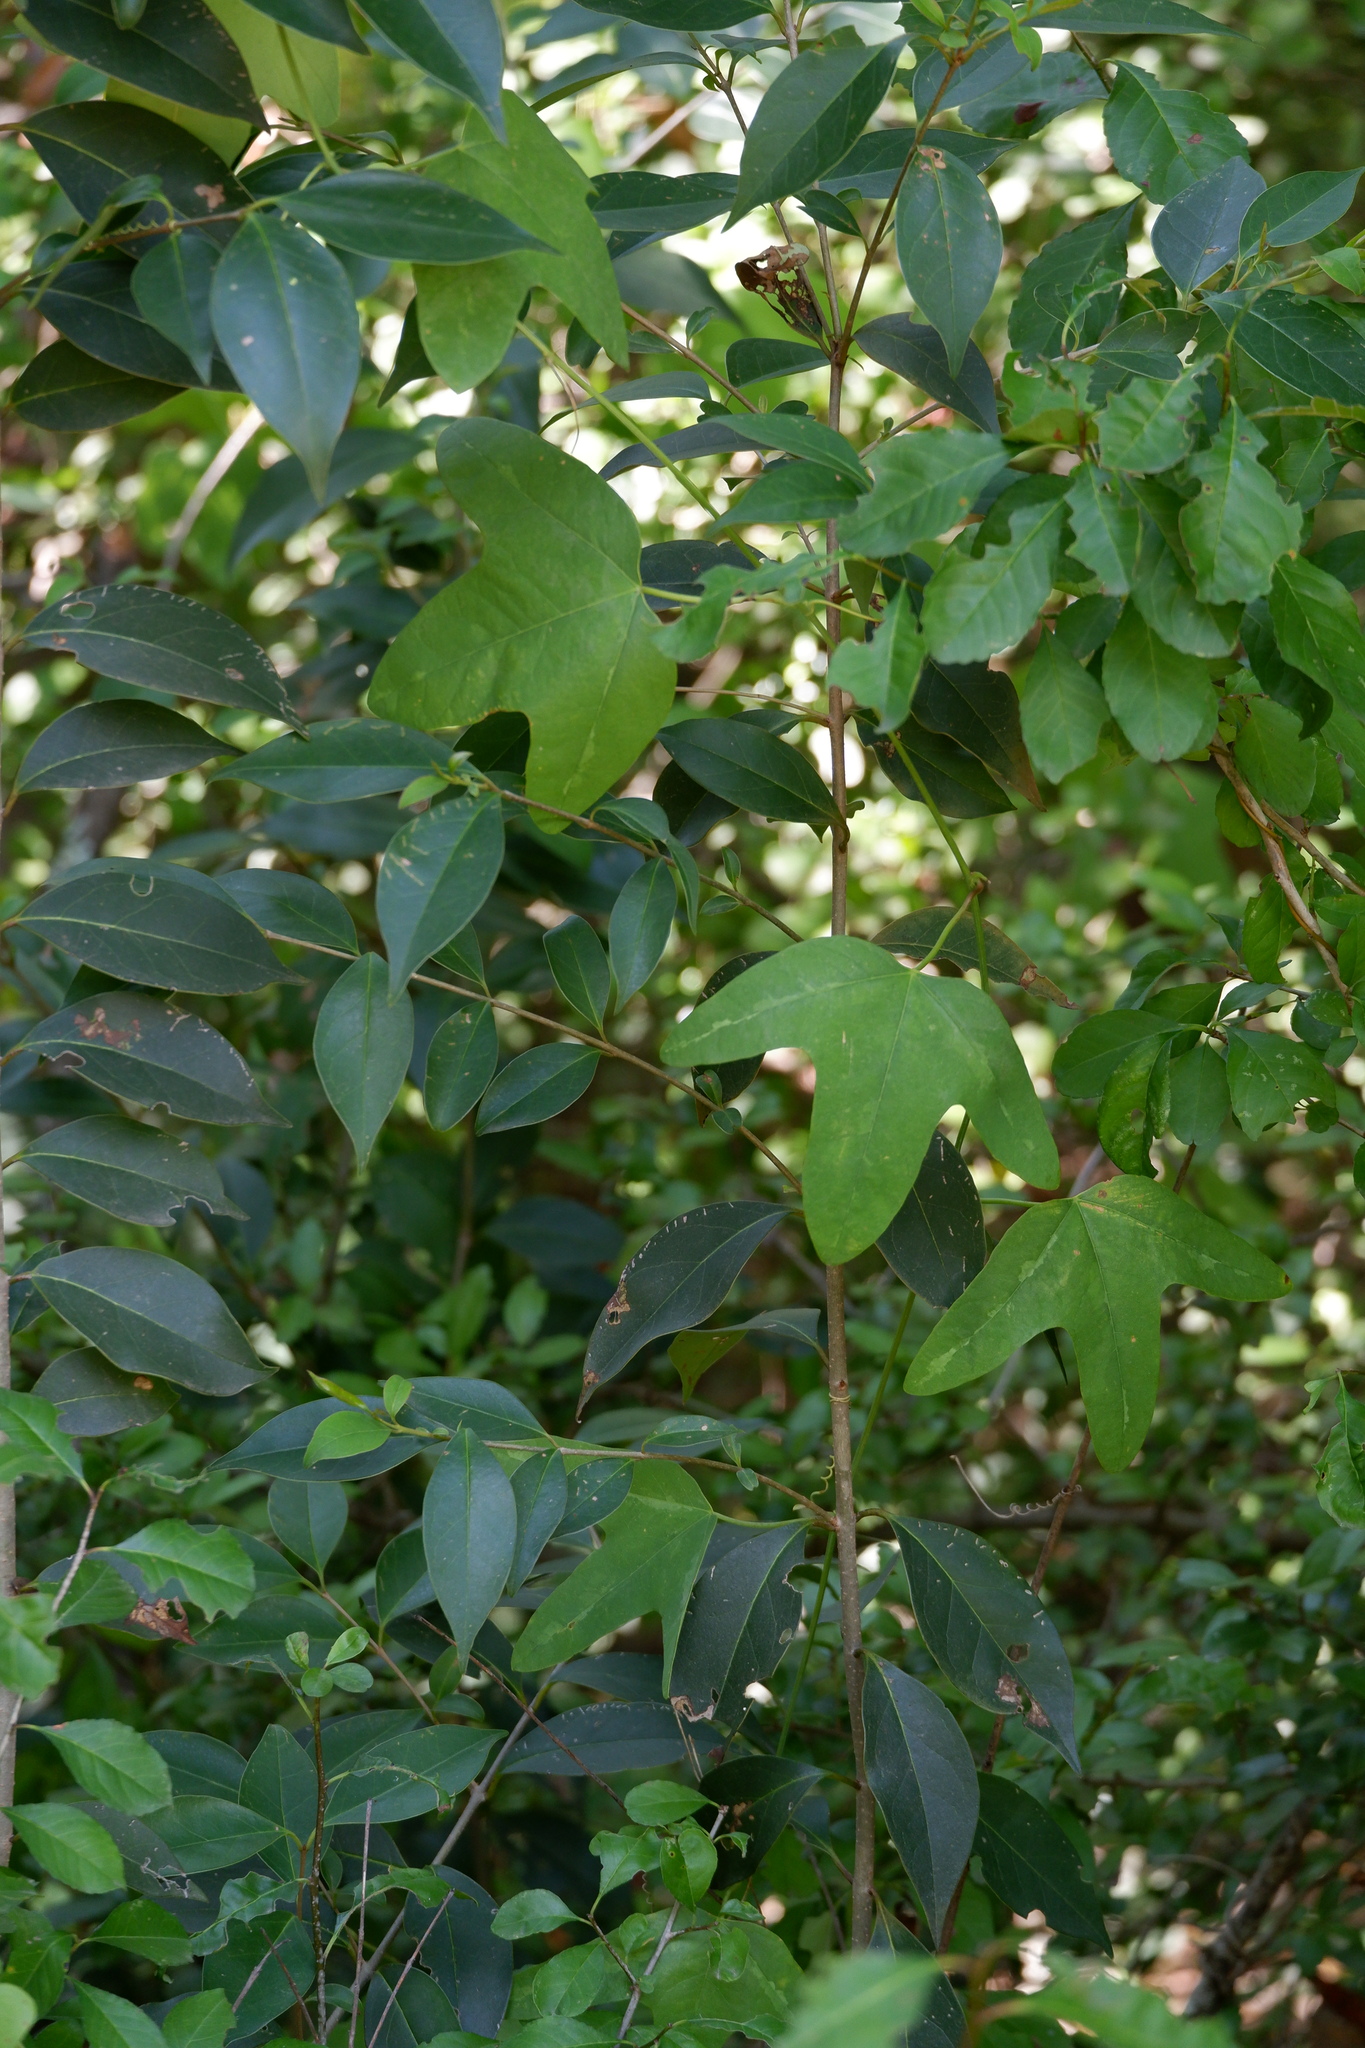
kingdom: Plantae
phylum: Tracheophyta
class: Magnoliopsida
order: Malpighiales
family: Passifloraceae
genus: Passiflora
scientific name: Passiflora lutea
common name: Yellow passionflower
